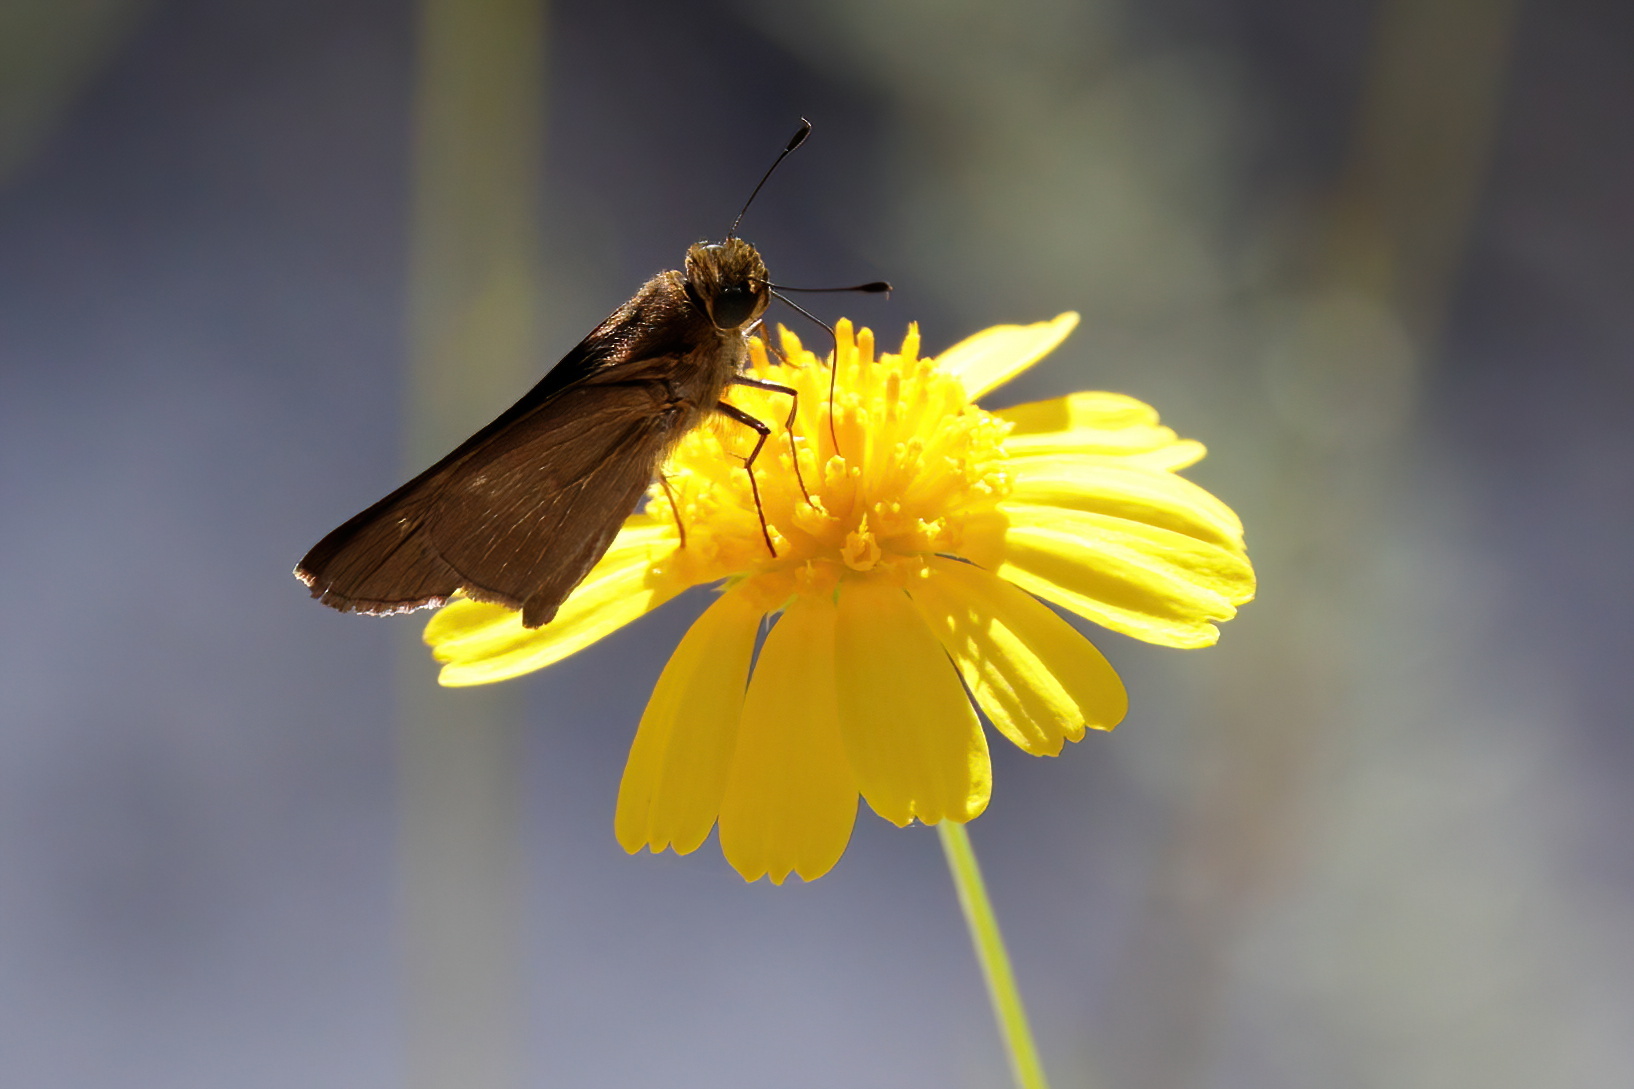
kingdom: Animalia
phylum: Arthropoda
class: Insecta
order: Lepidoptera
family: Hesperiidae
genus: Panoquina
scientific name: Panoquina ocola
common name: Ocola skipper
